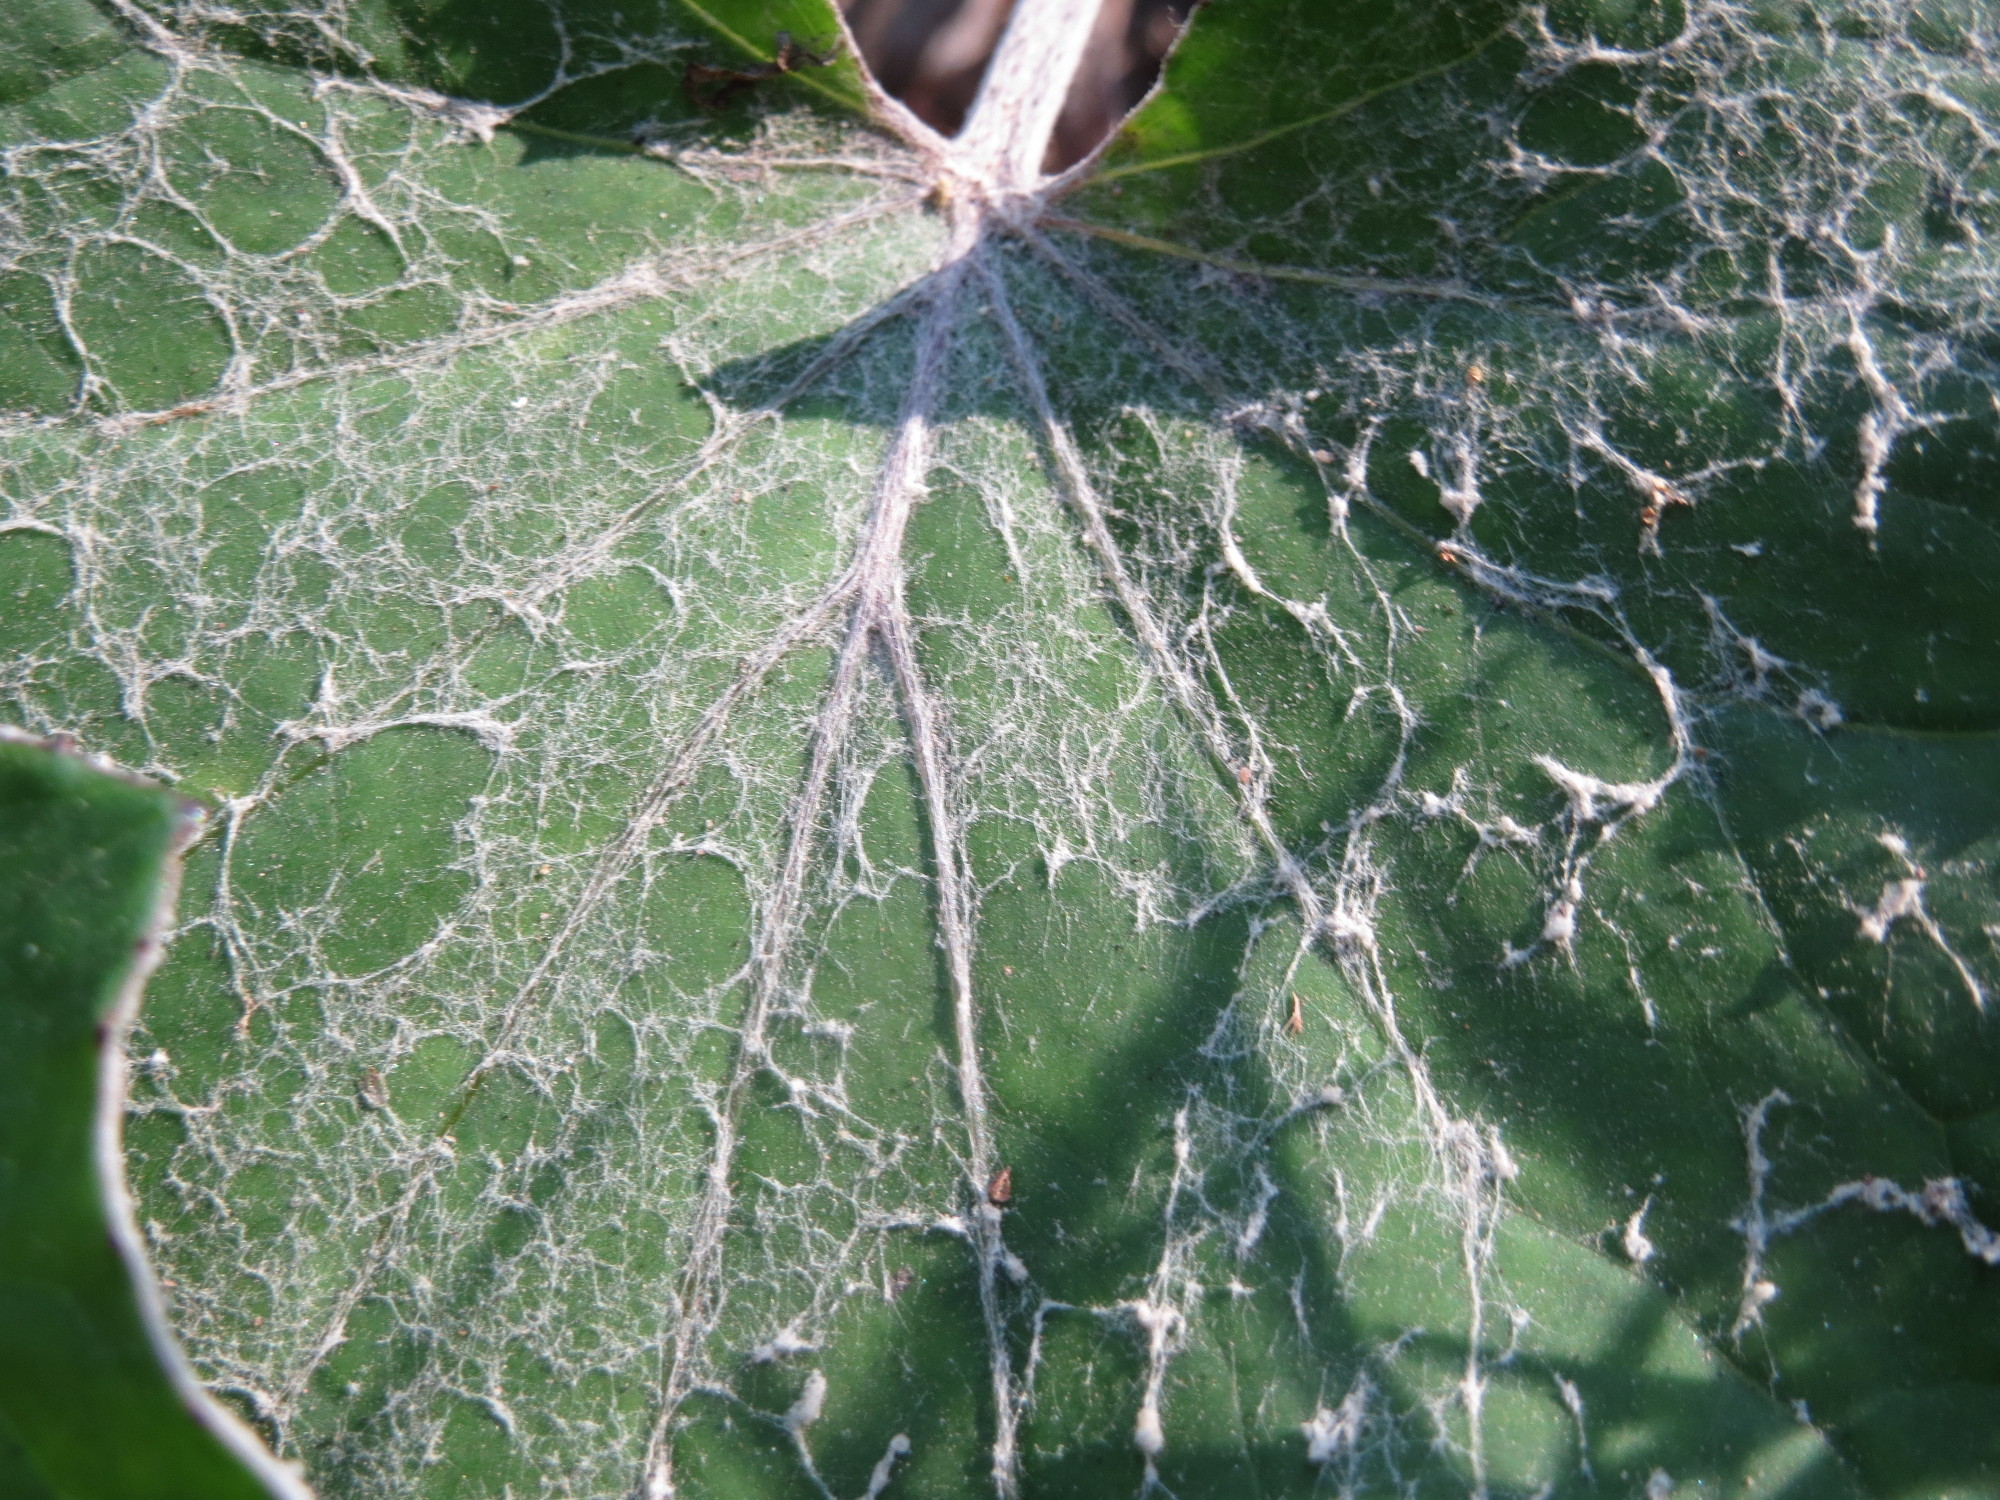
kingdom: Plantae
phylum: Tracheophyta
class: Magnoliopsida
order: Asterales
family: Asteraceae
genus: Tussilago
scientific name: Tussilago farfara
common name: Coltsfoot
